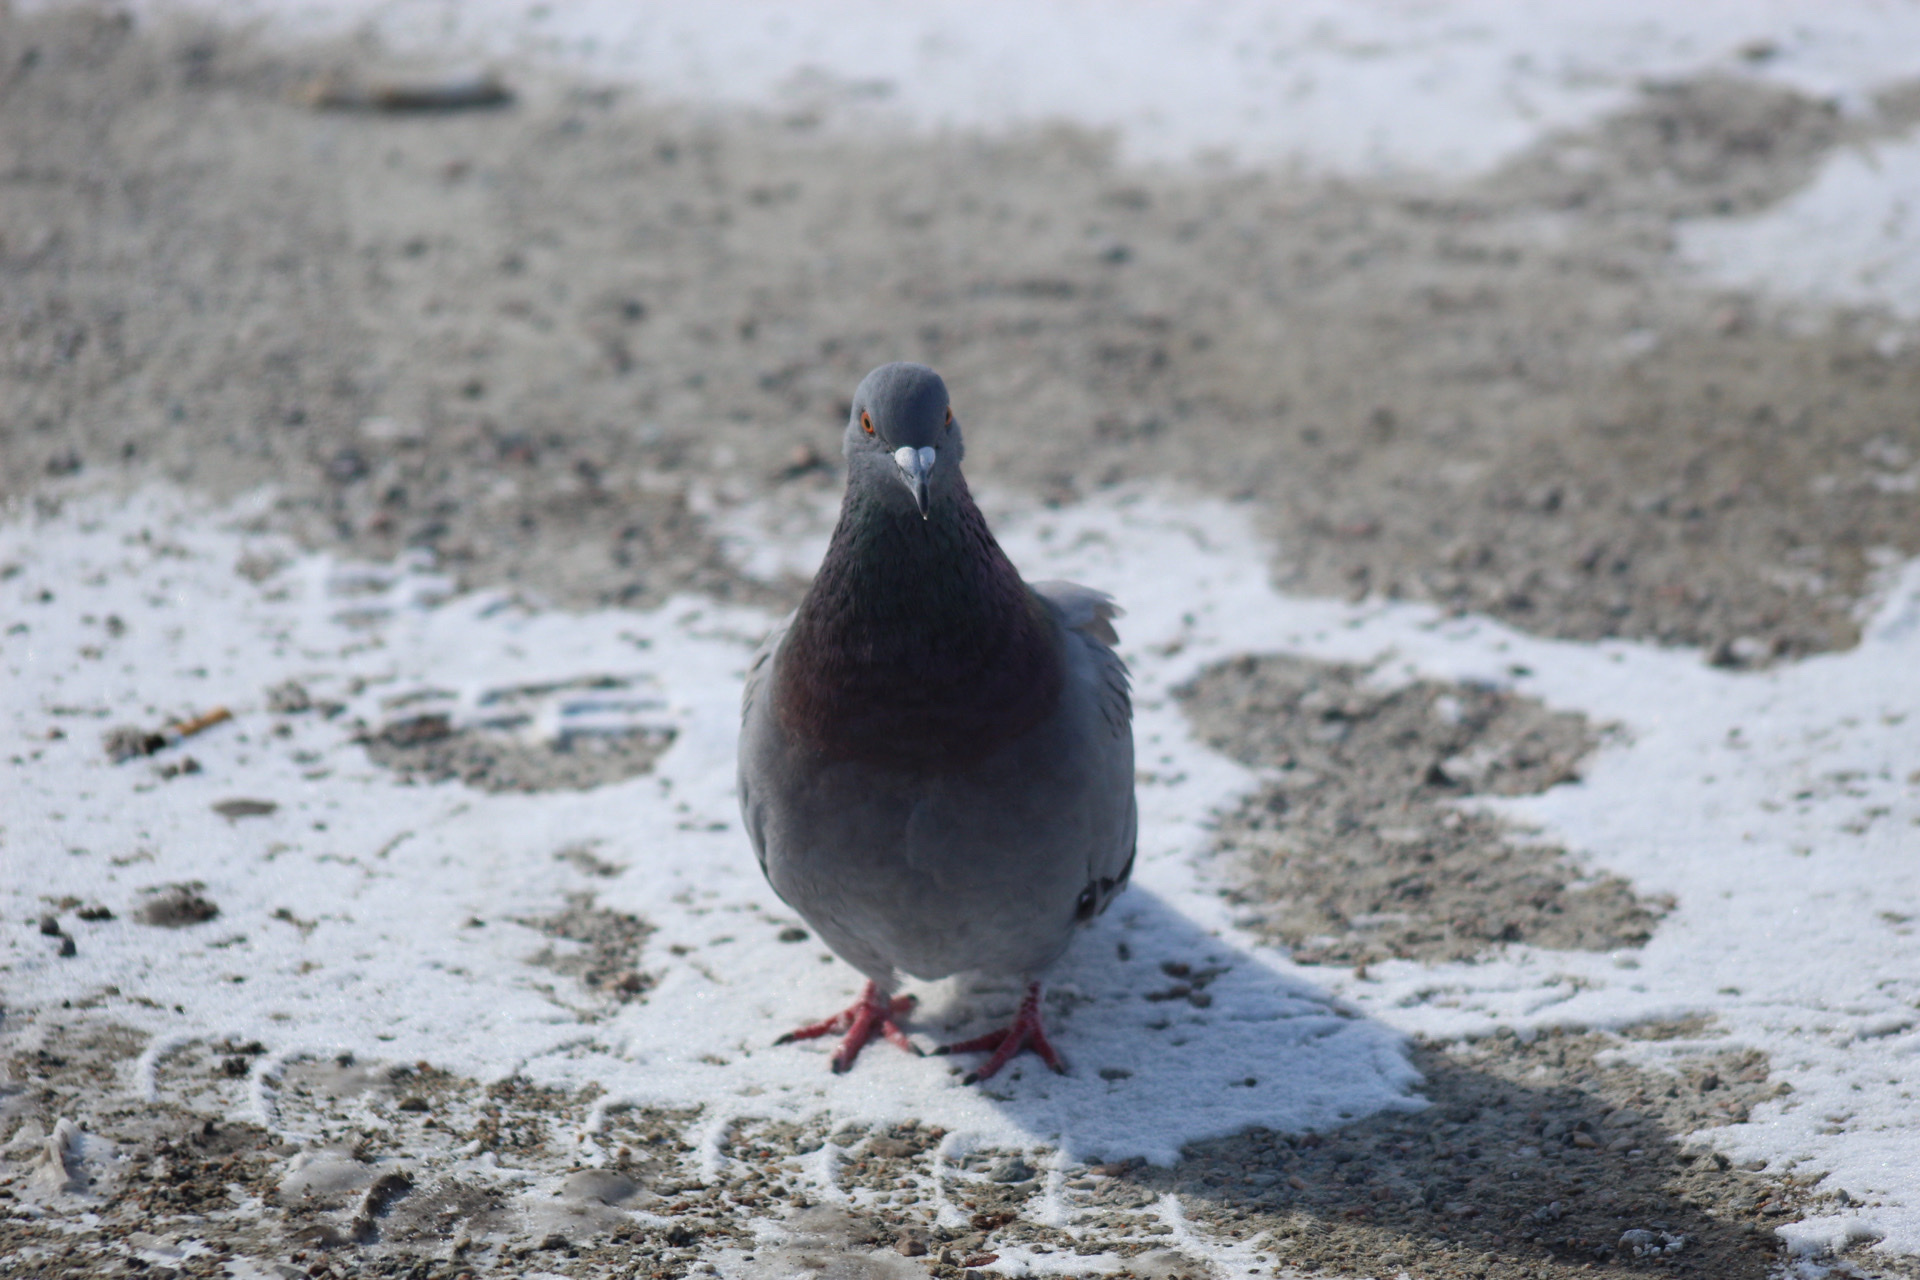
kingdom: Animalia
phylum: Chordata
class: Aves
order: Columbiformes
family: Columbidae
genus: Columba
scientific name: Columba livia
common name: Rock pigeon
